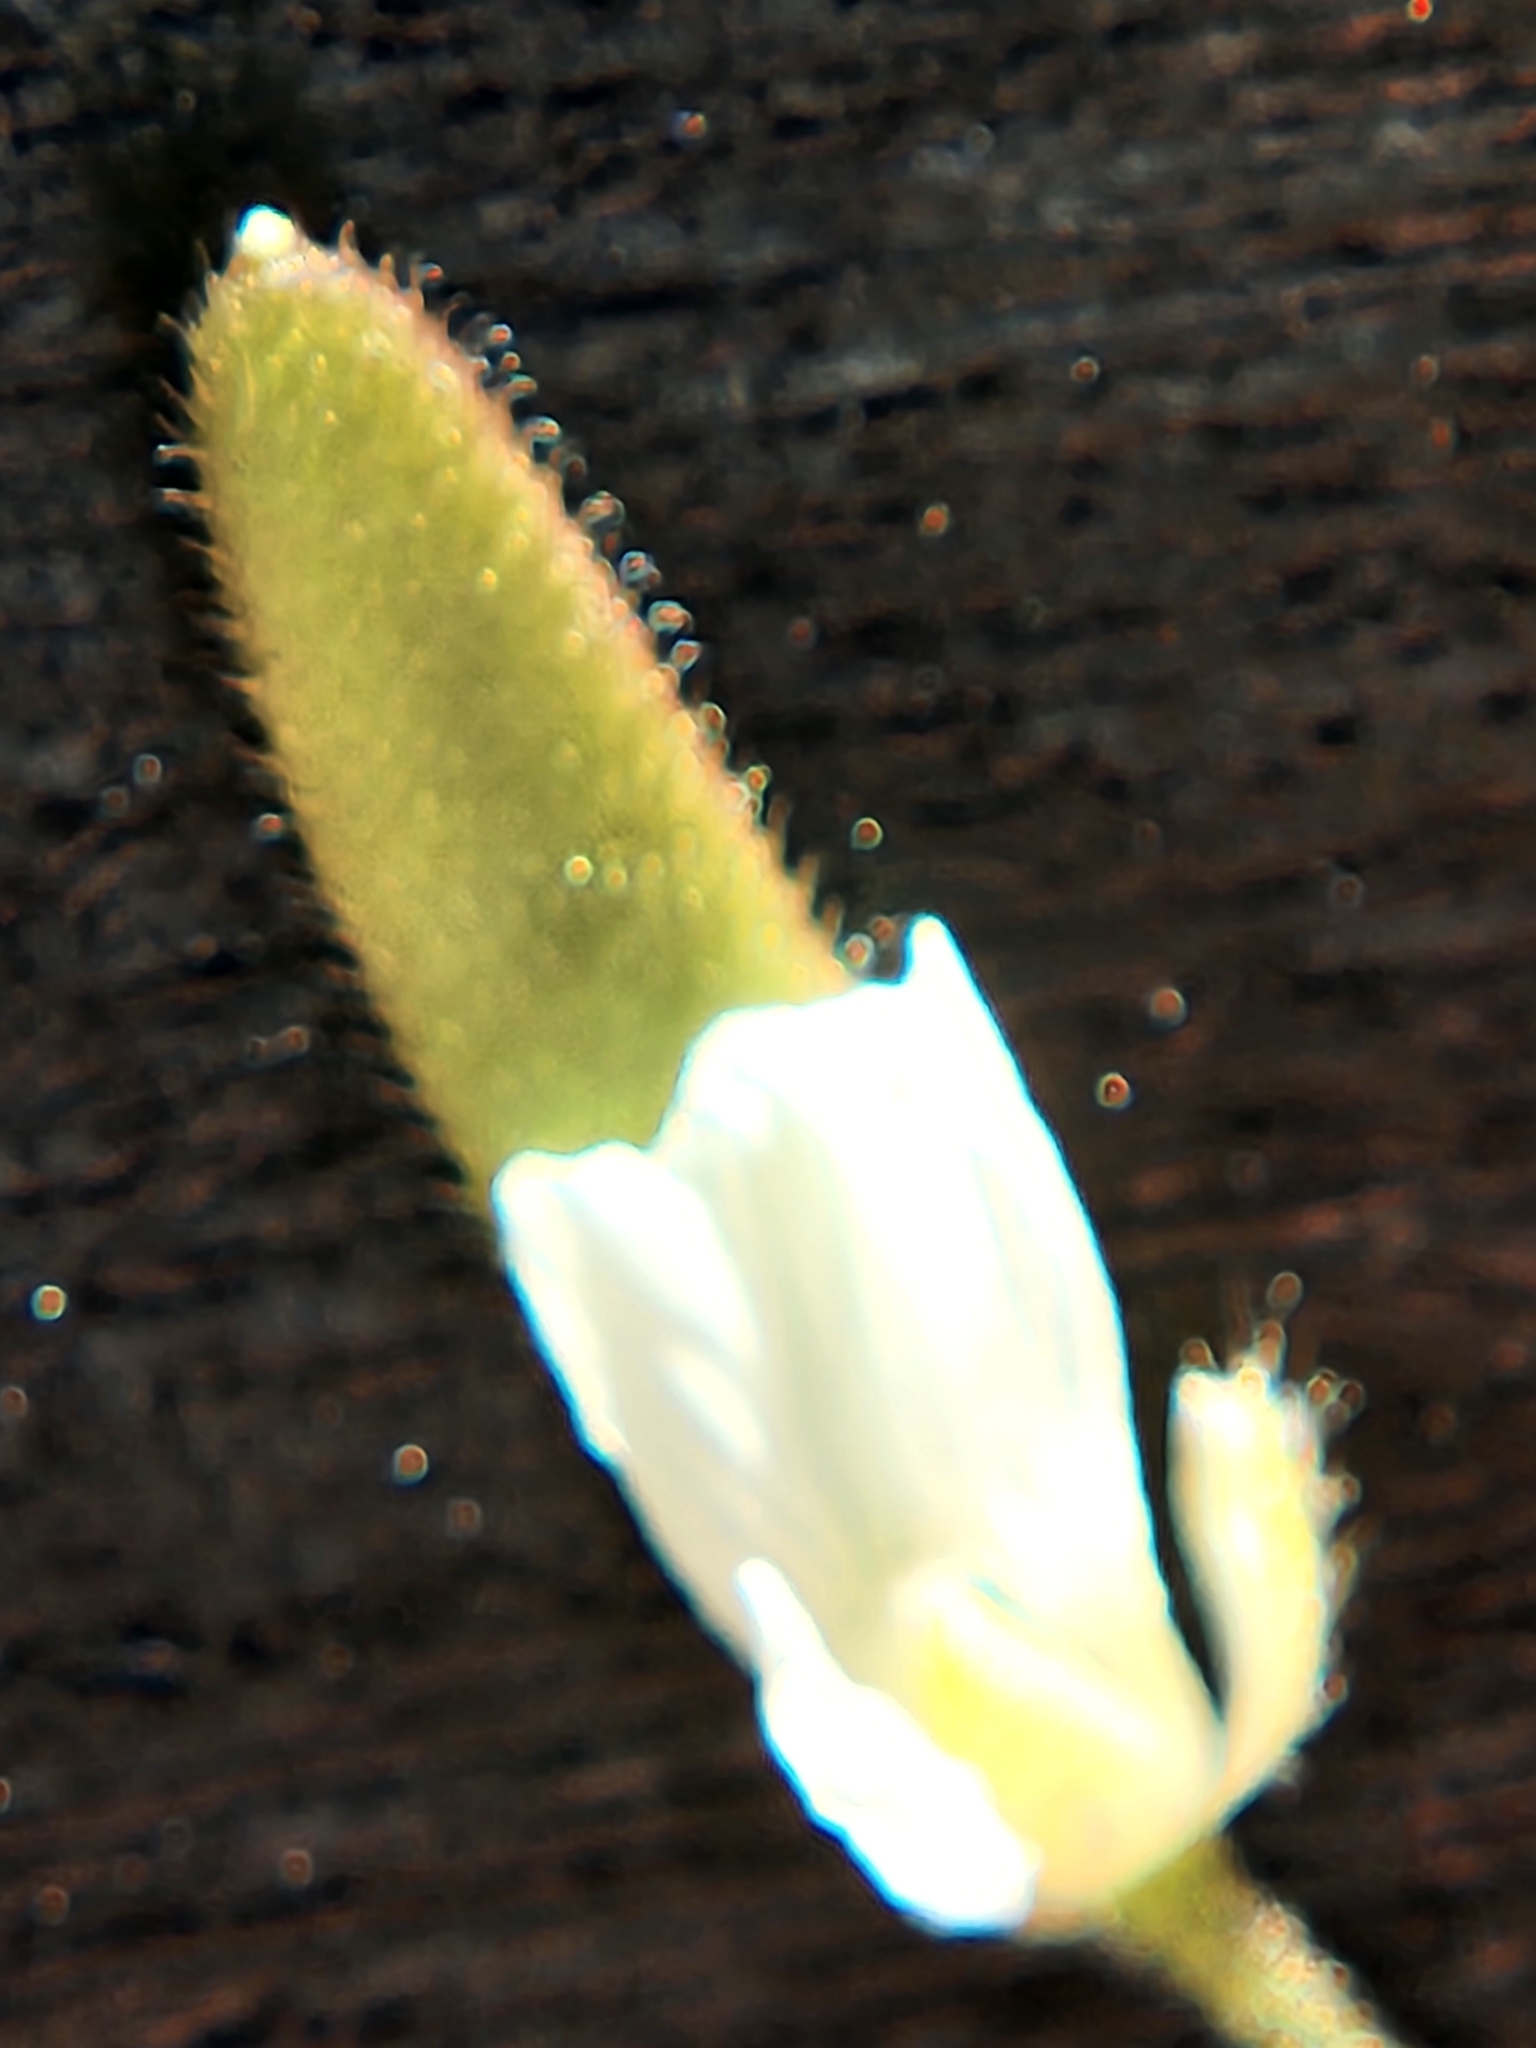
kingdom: Plantae
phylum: Tracheophyta
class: Magnoliopsida
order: Brassicales
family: Brassicaceae
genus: Tomostima
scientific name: Tomostima cuneifolia
